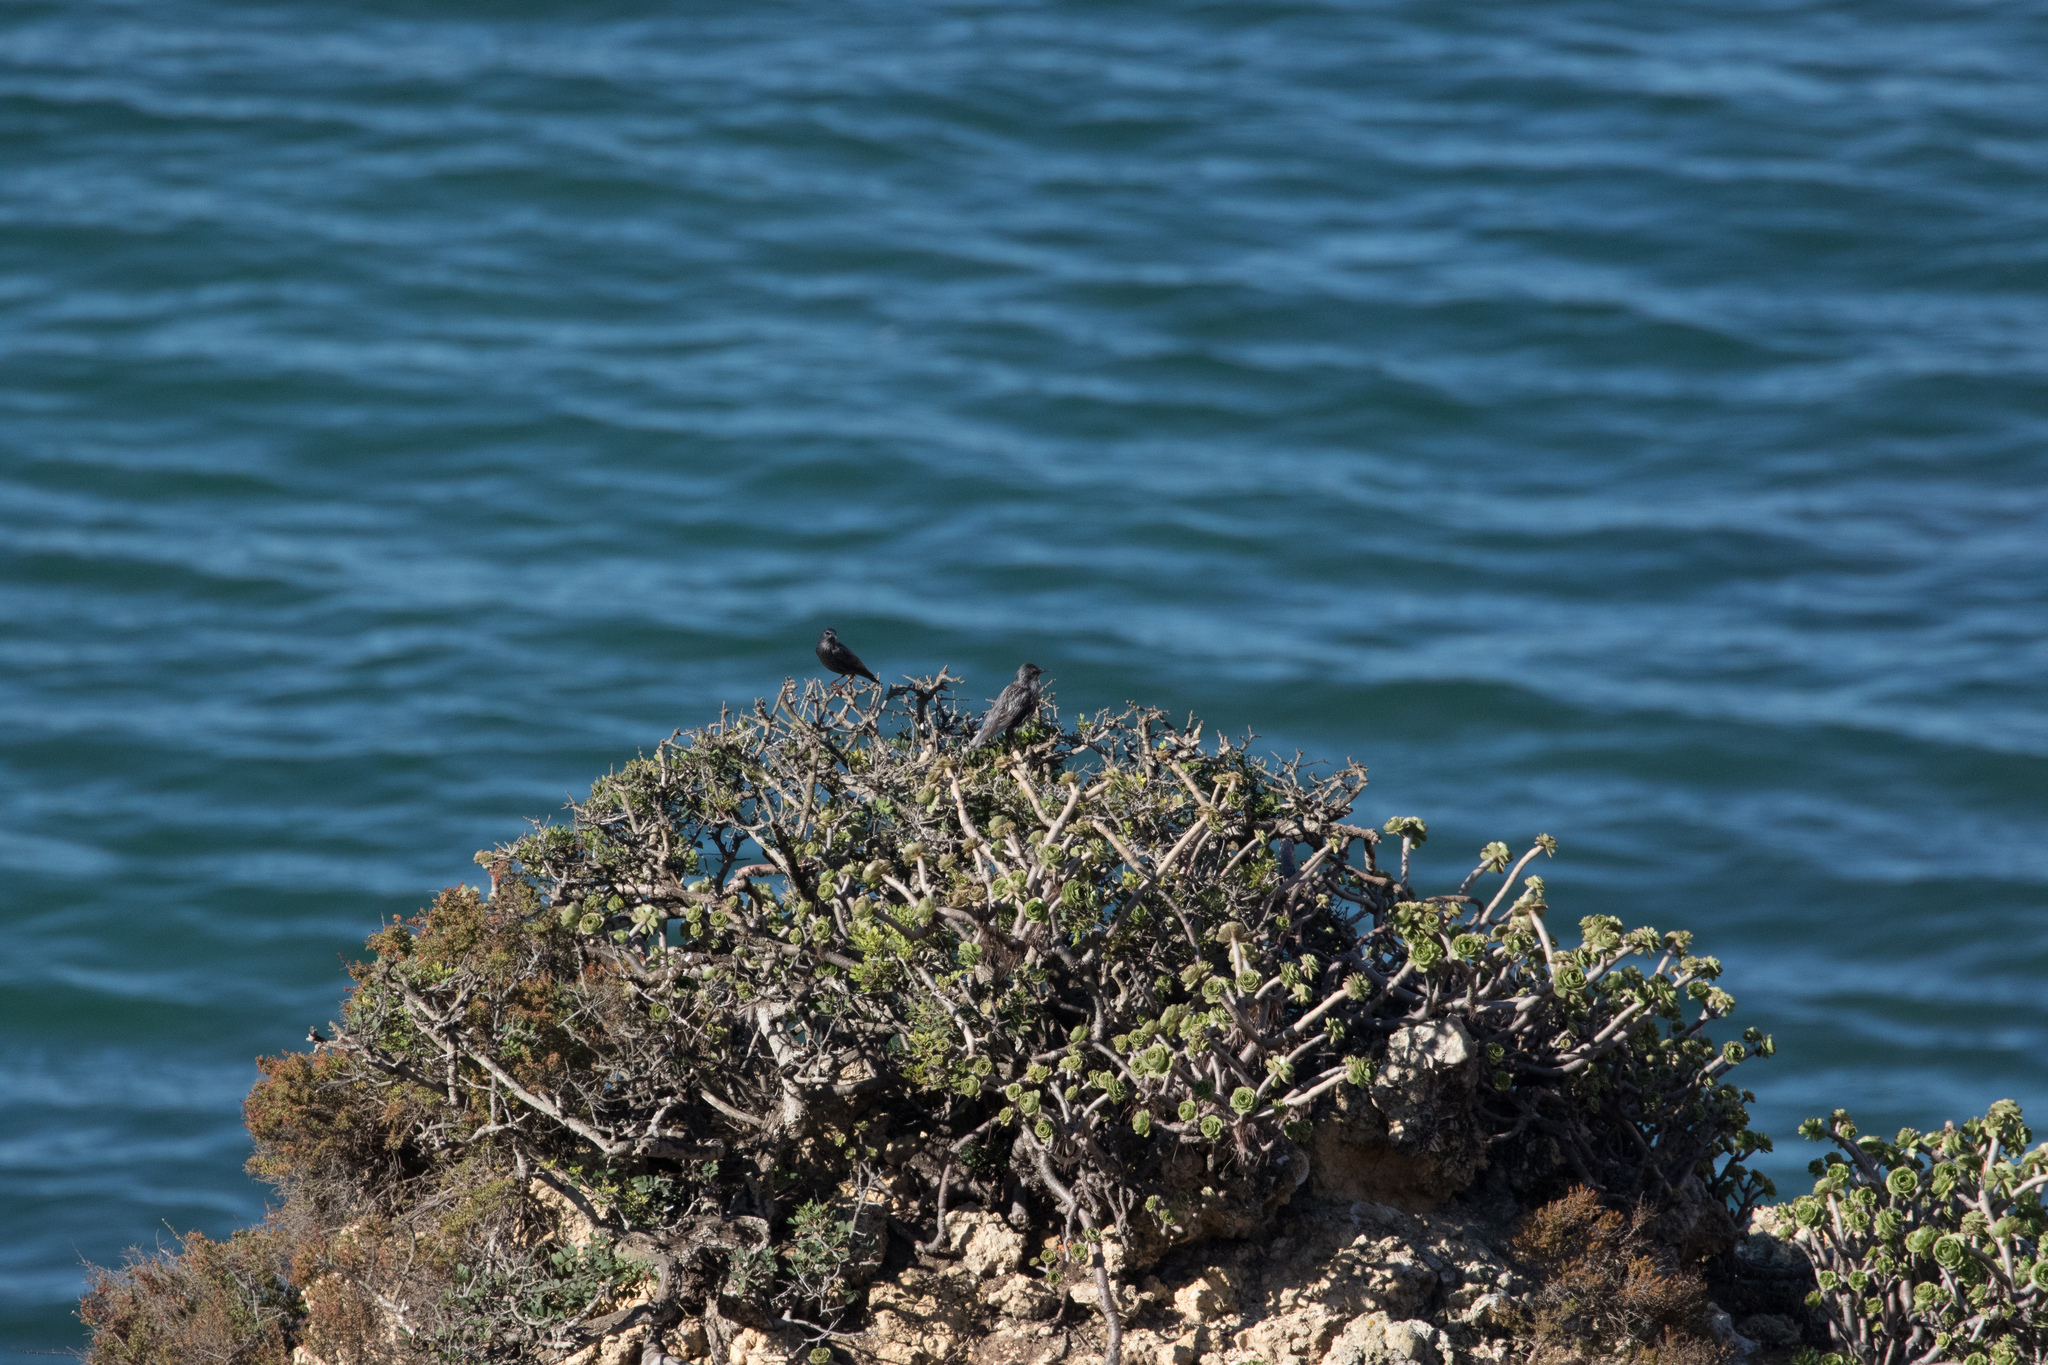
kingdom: Animalia
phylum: Chordata
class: Aves
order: Passeriformes
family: Sturnidae
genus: Sturnus
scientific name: Sturnus unicolor
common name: Spotless starling
